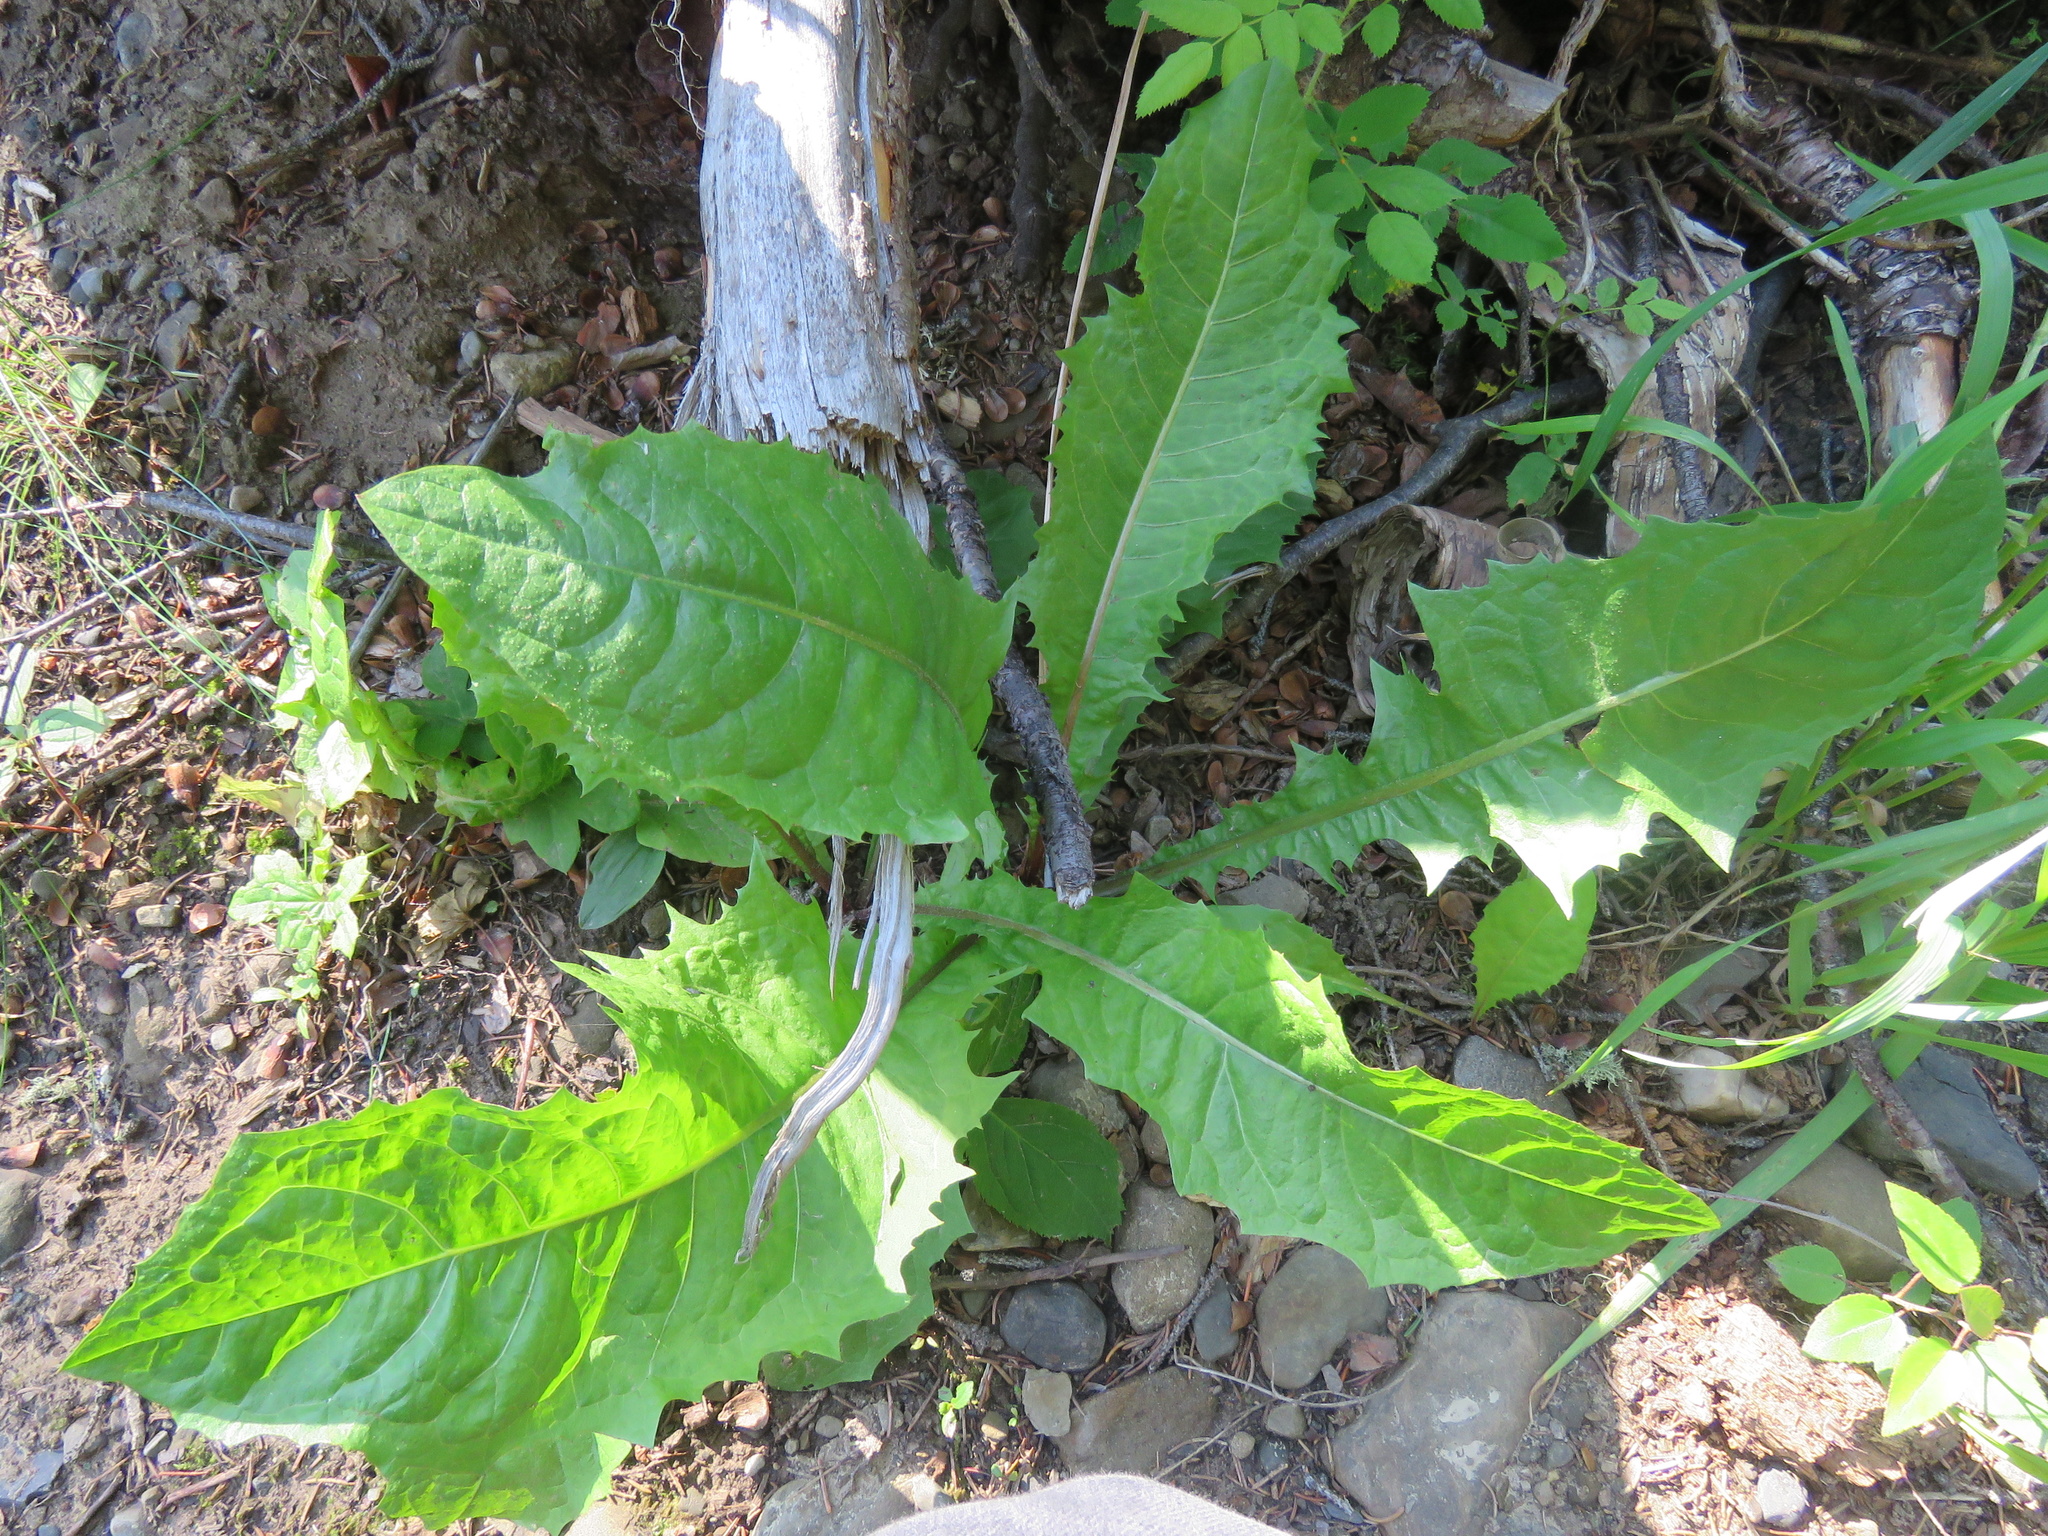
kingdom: Plantae
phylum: Tracheophyta
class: Magnoliopsida
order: Asterales
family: Asteraceae
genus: Taraxacum
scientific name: Taraxacum officinale
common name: Common dandelion
